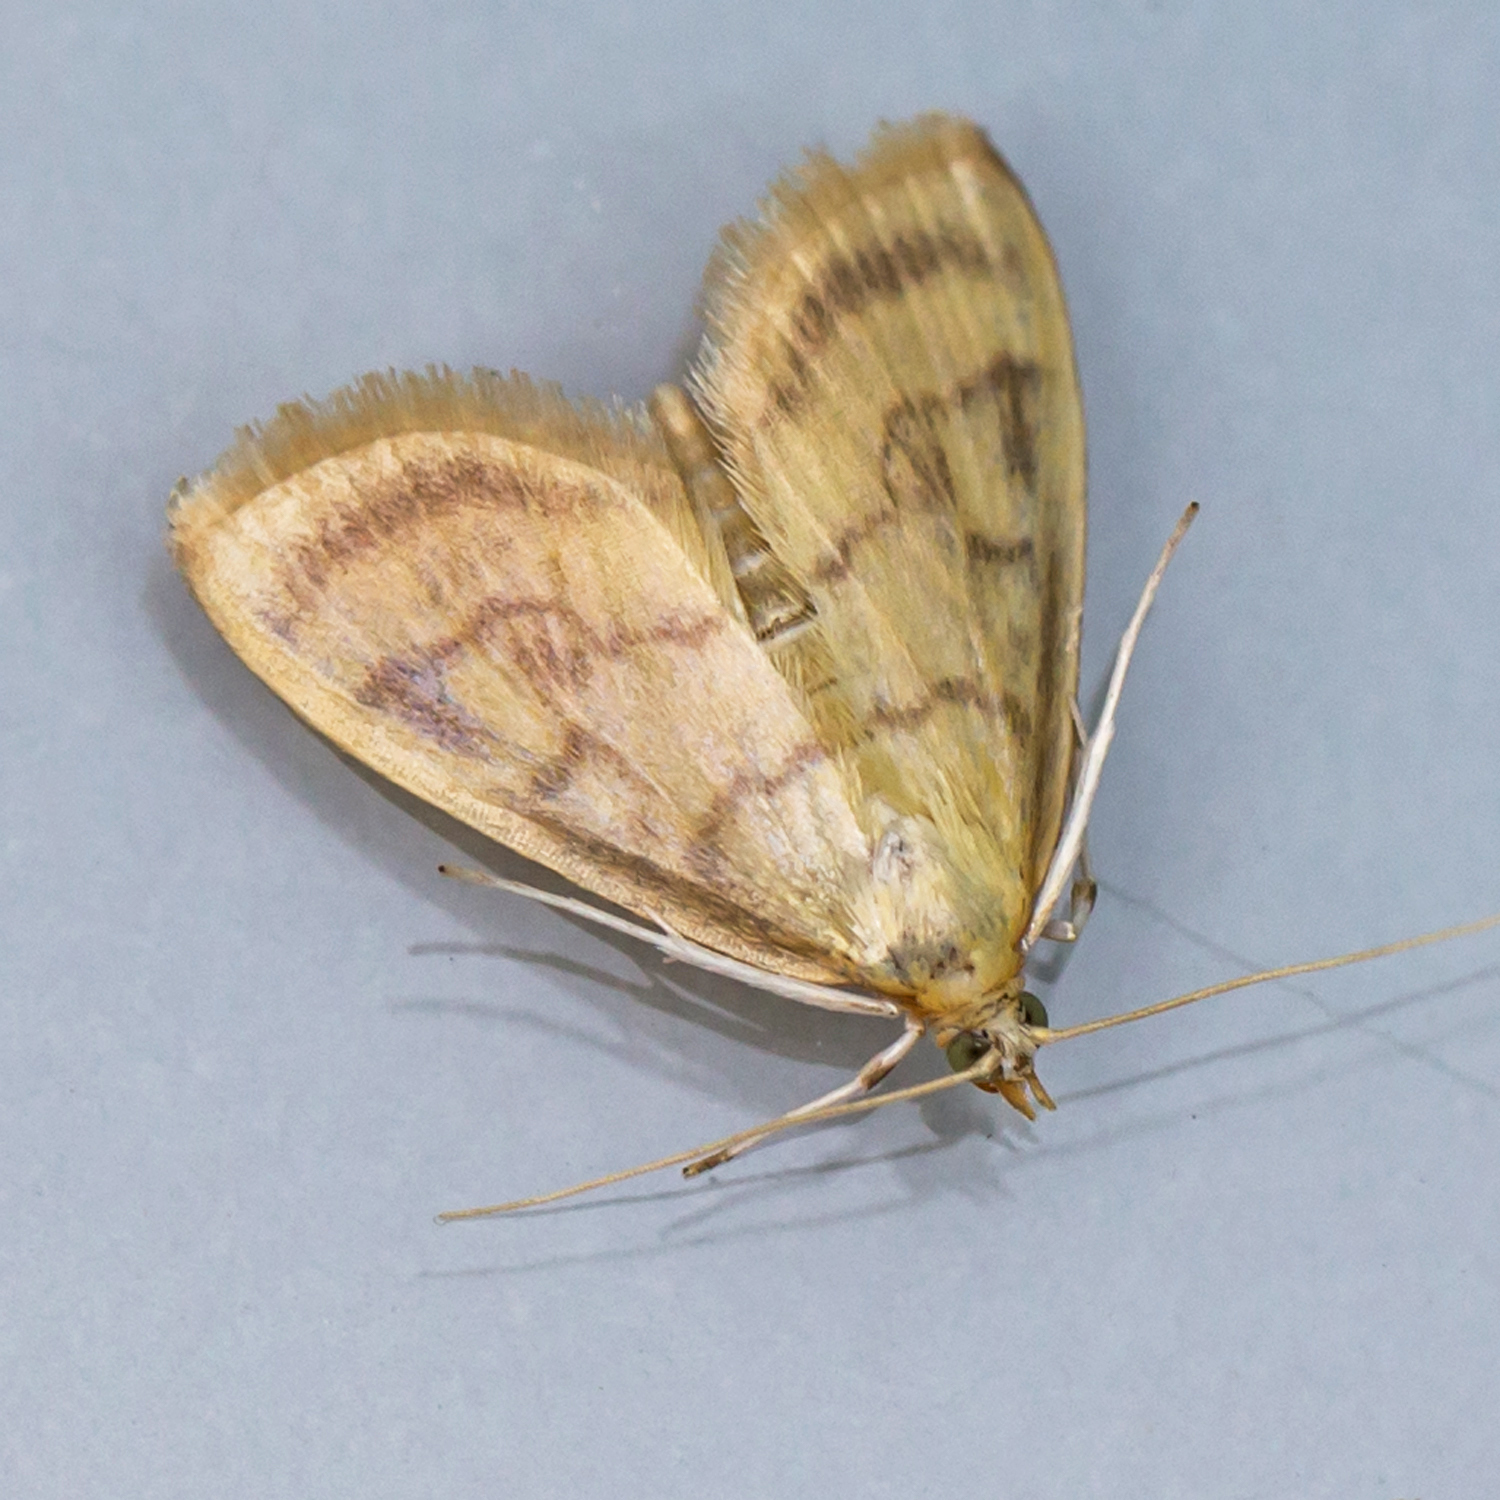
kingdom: Animalia
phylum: Arthropoda
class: Insecta
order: Lepidoptera
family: Crambidae
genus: Crocidophora
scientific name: Crocidophora tuberculalis
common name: Pale-winged crocidiphora moth
